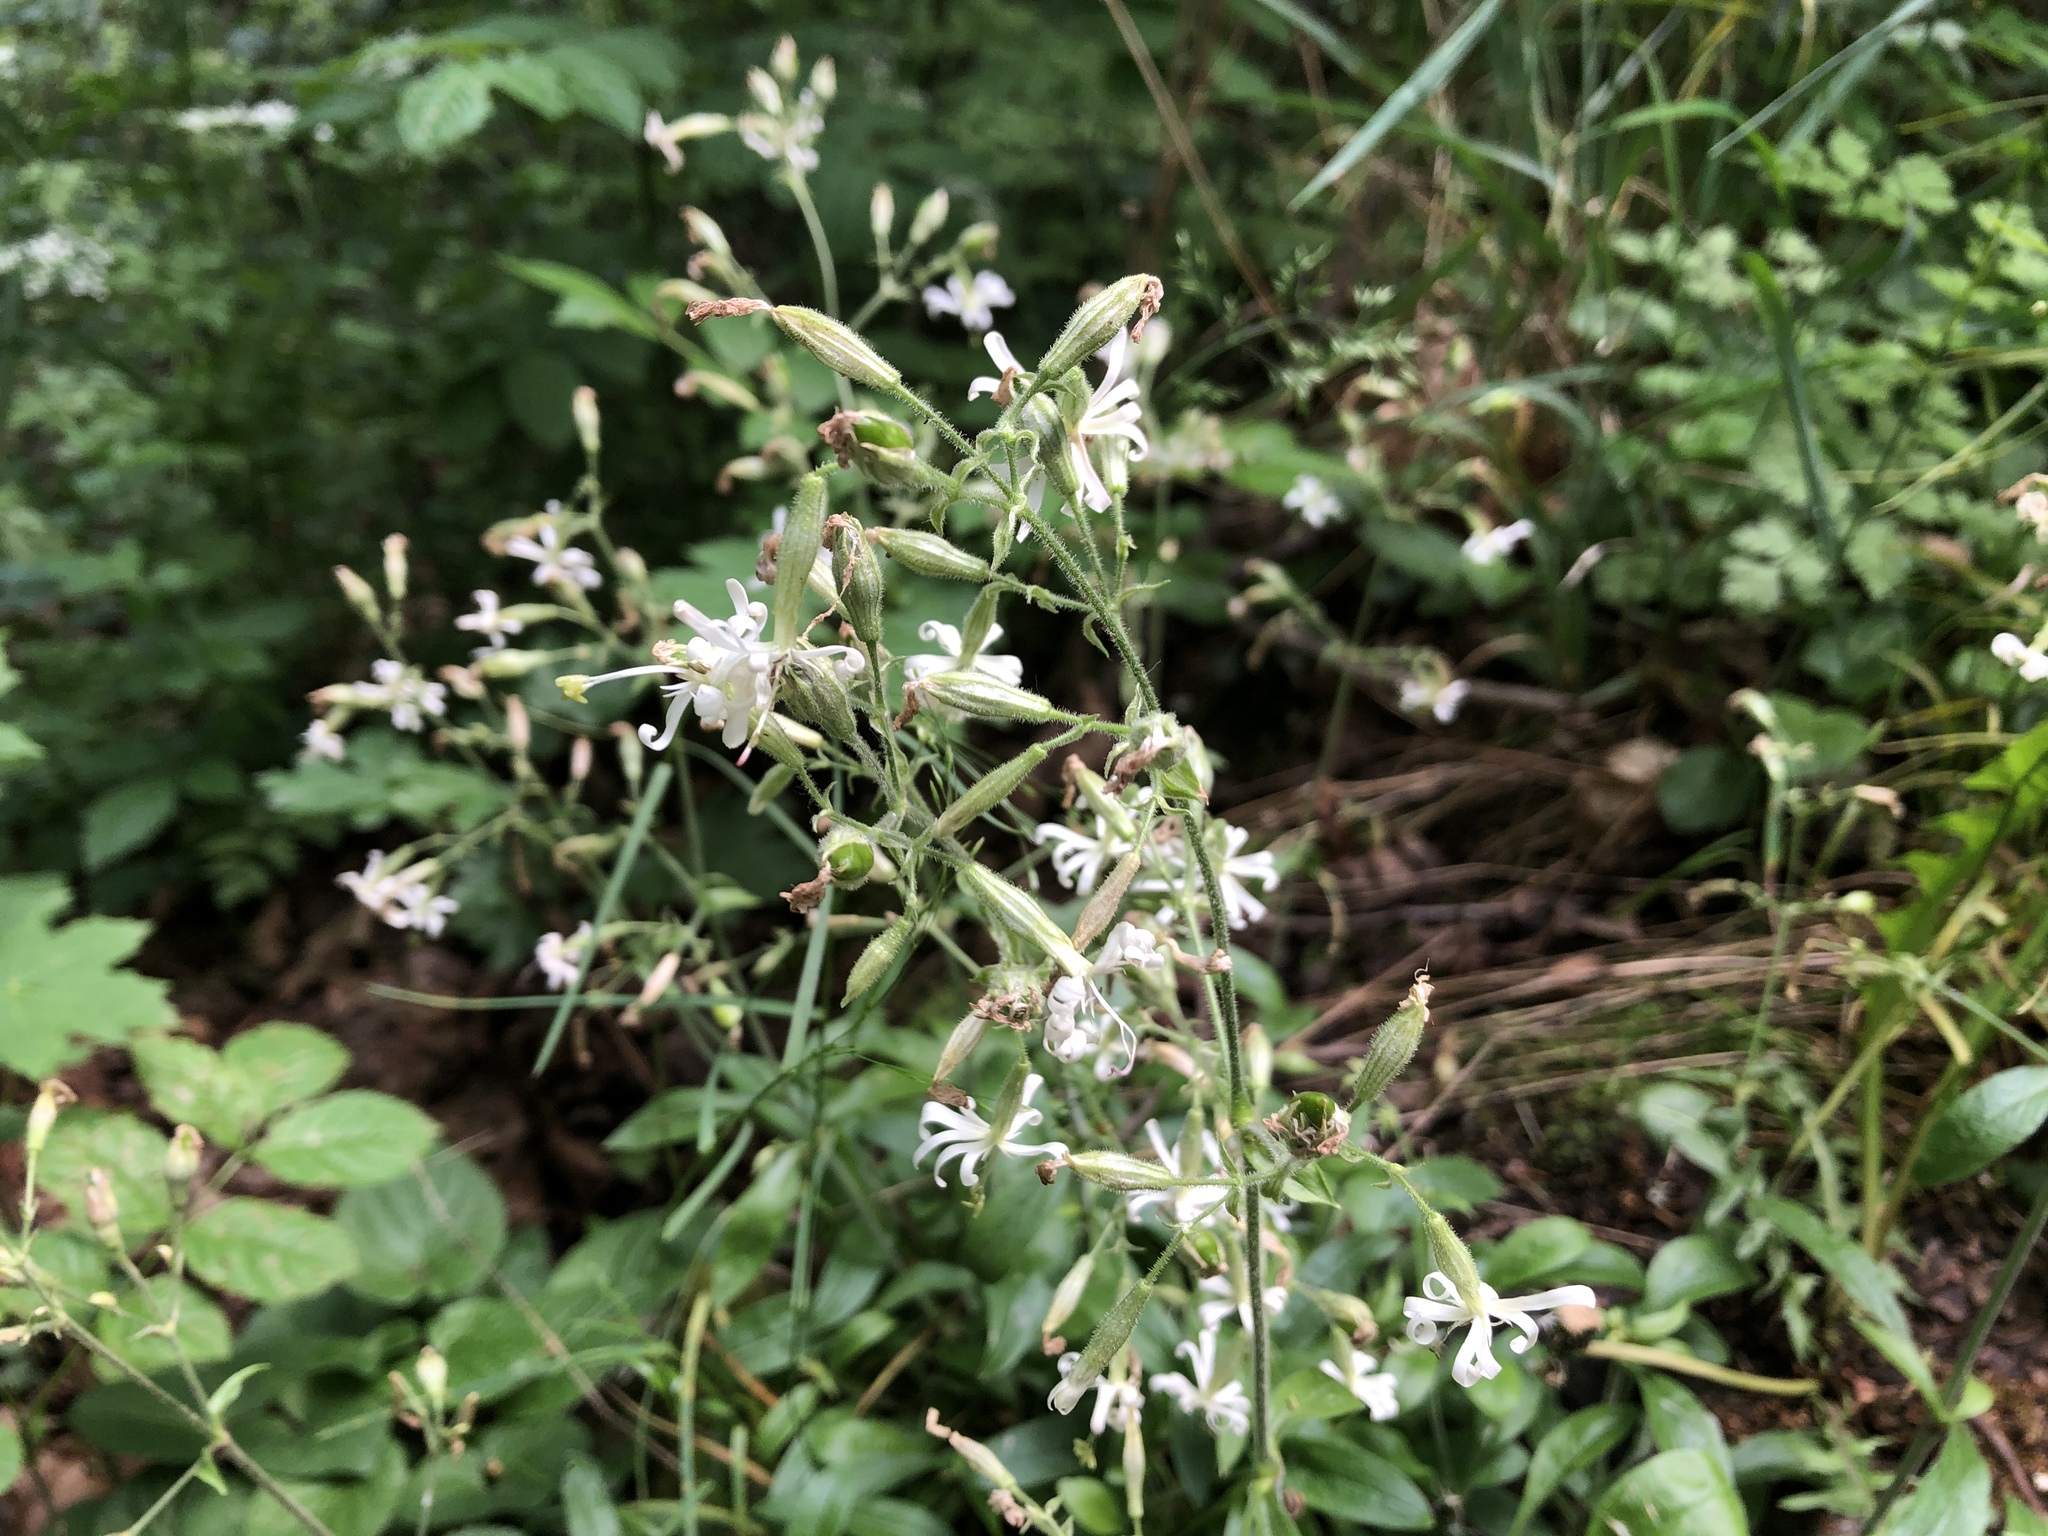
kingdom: Plantae
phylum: Tracheophyta
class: Magnoliopsida
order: Caryophyllales
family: Caryophyllaceae
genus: Silene
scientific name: Silene nutans
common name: Nottingham catchfly
